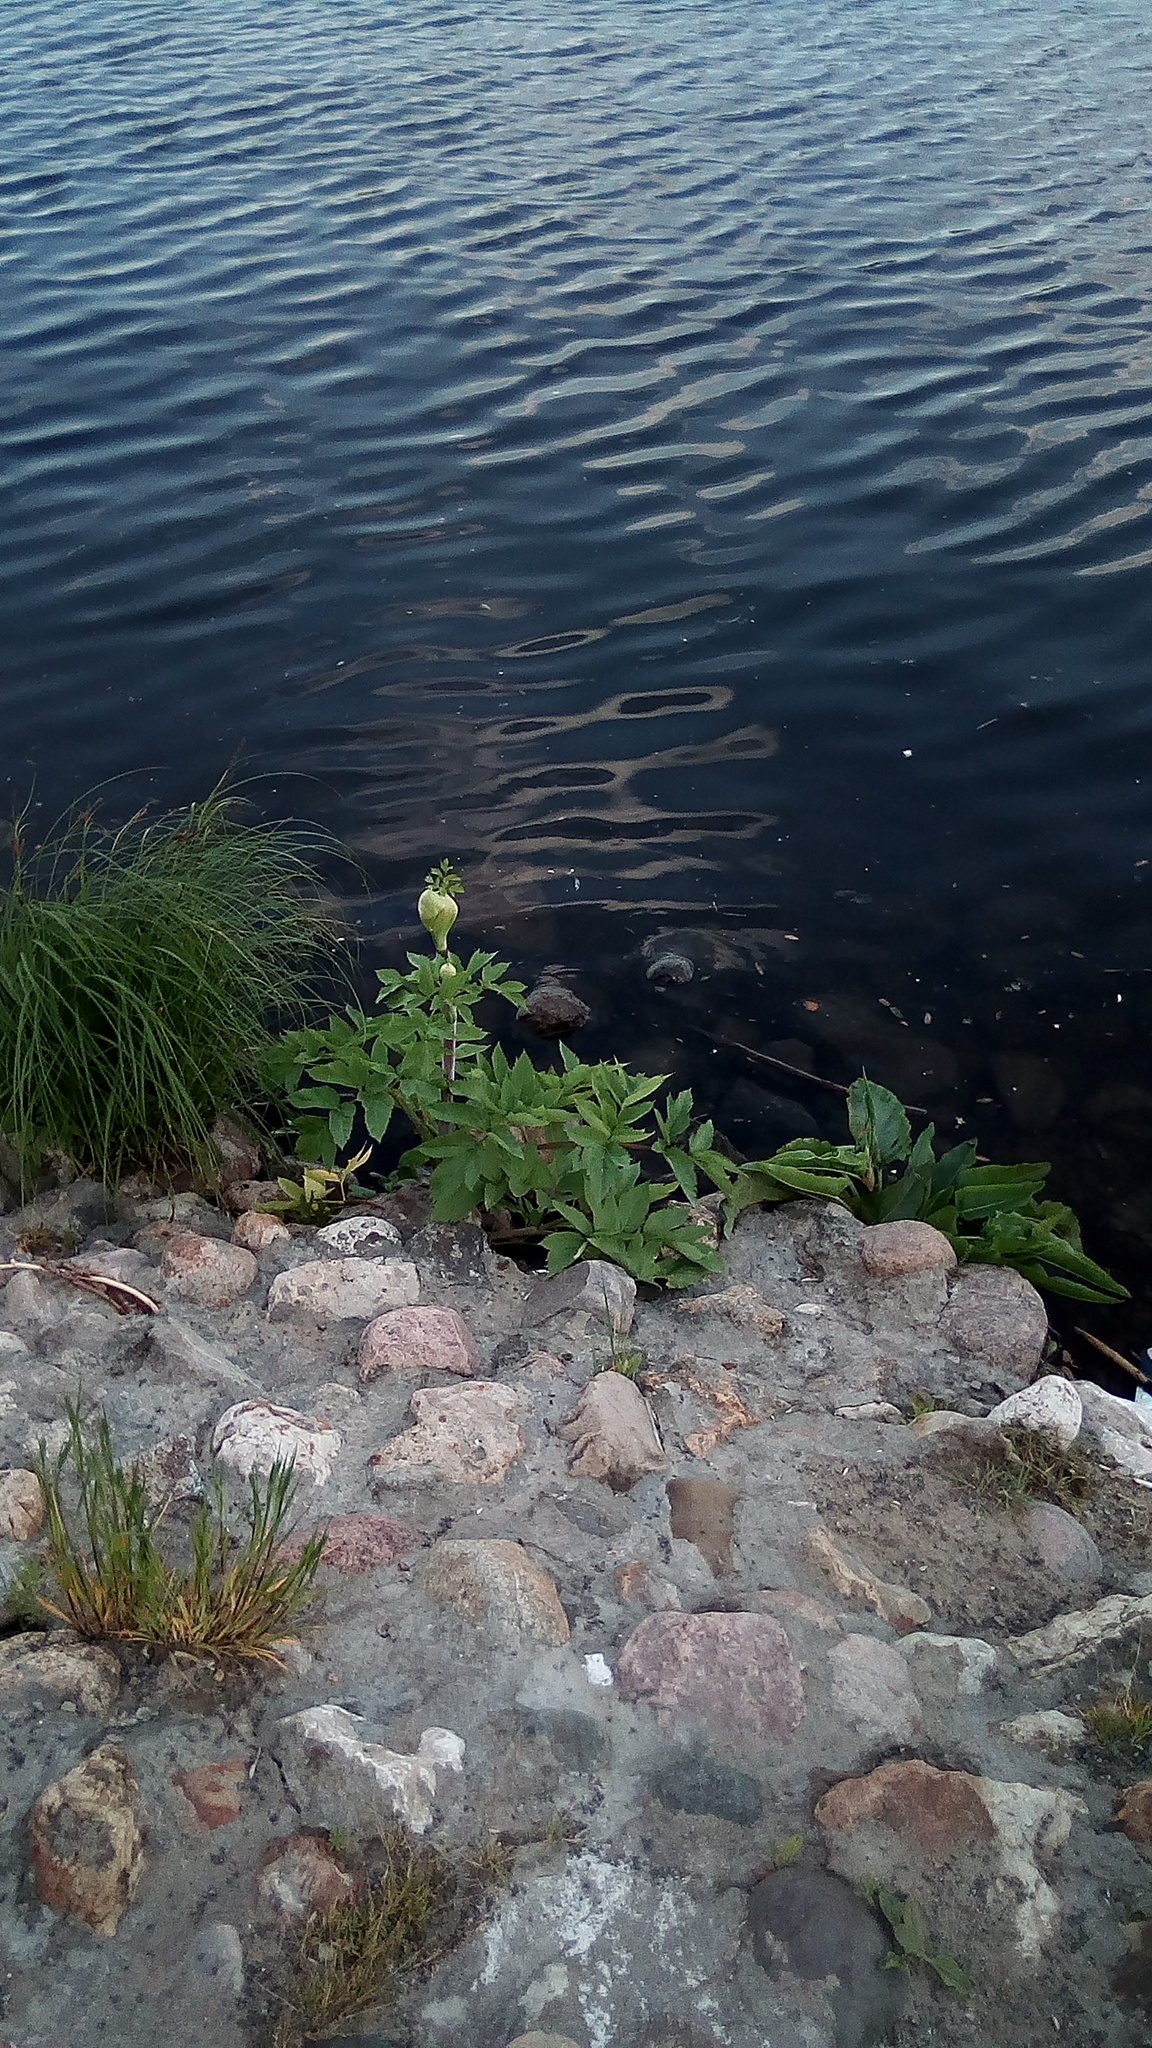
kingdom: Plantae
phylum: Tracheophyta
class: Magnoliopsida
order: Apiales
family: Apiaceae
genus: Angelica
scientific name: Angelica archangelica
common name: Garden angelica
